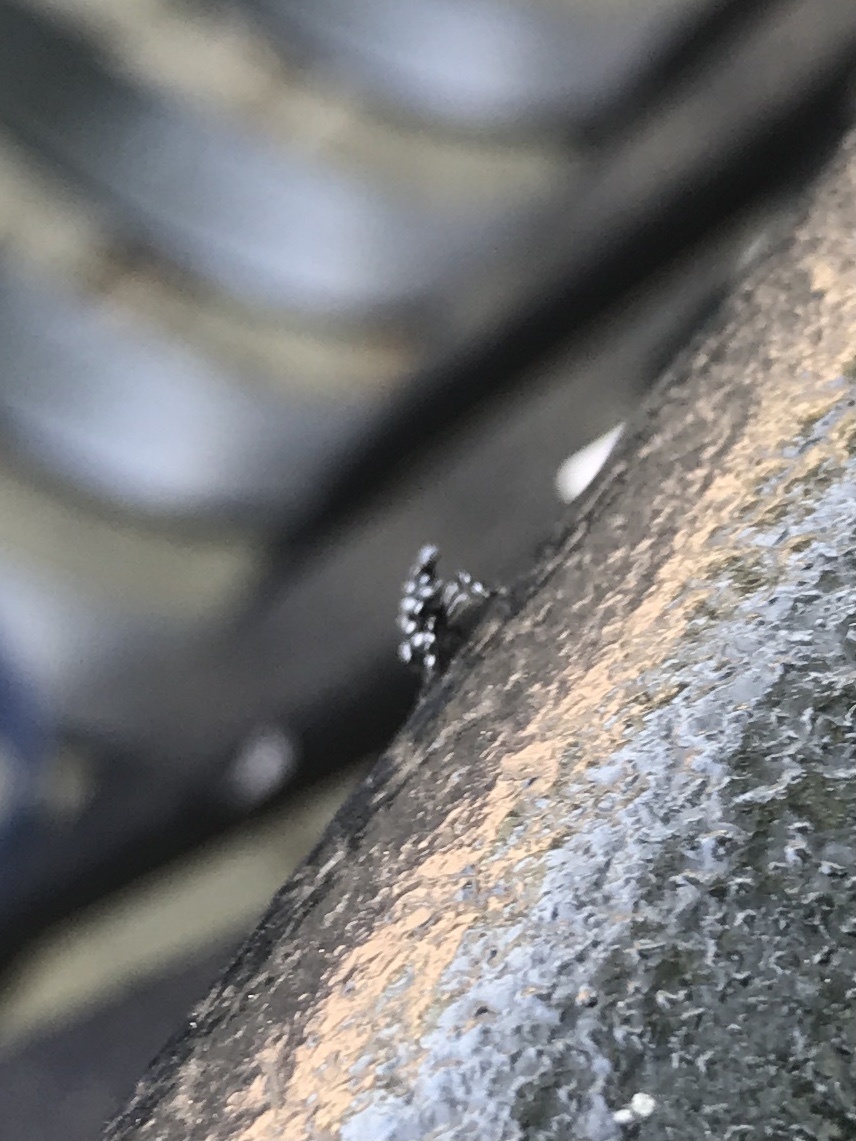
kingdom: Animalia
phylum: Arthropoda
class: Insecta
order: Hemiptera
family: Fulgoridae
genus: Lycorma
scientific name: Lycorma delicatula
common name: Spotted lanternfly
